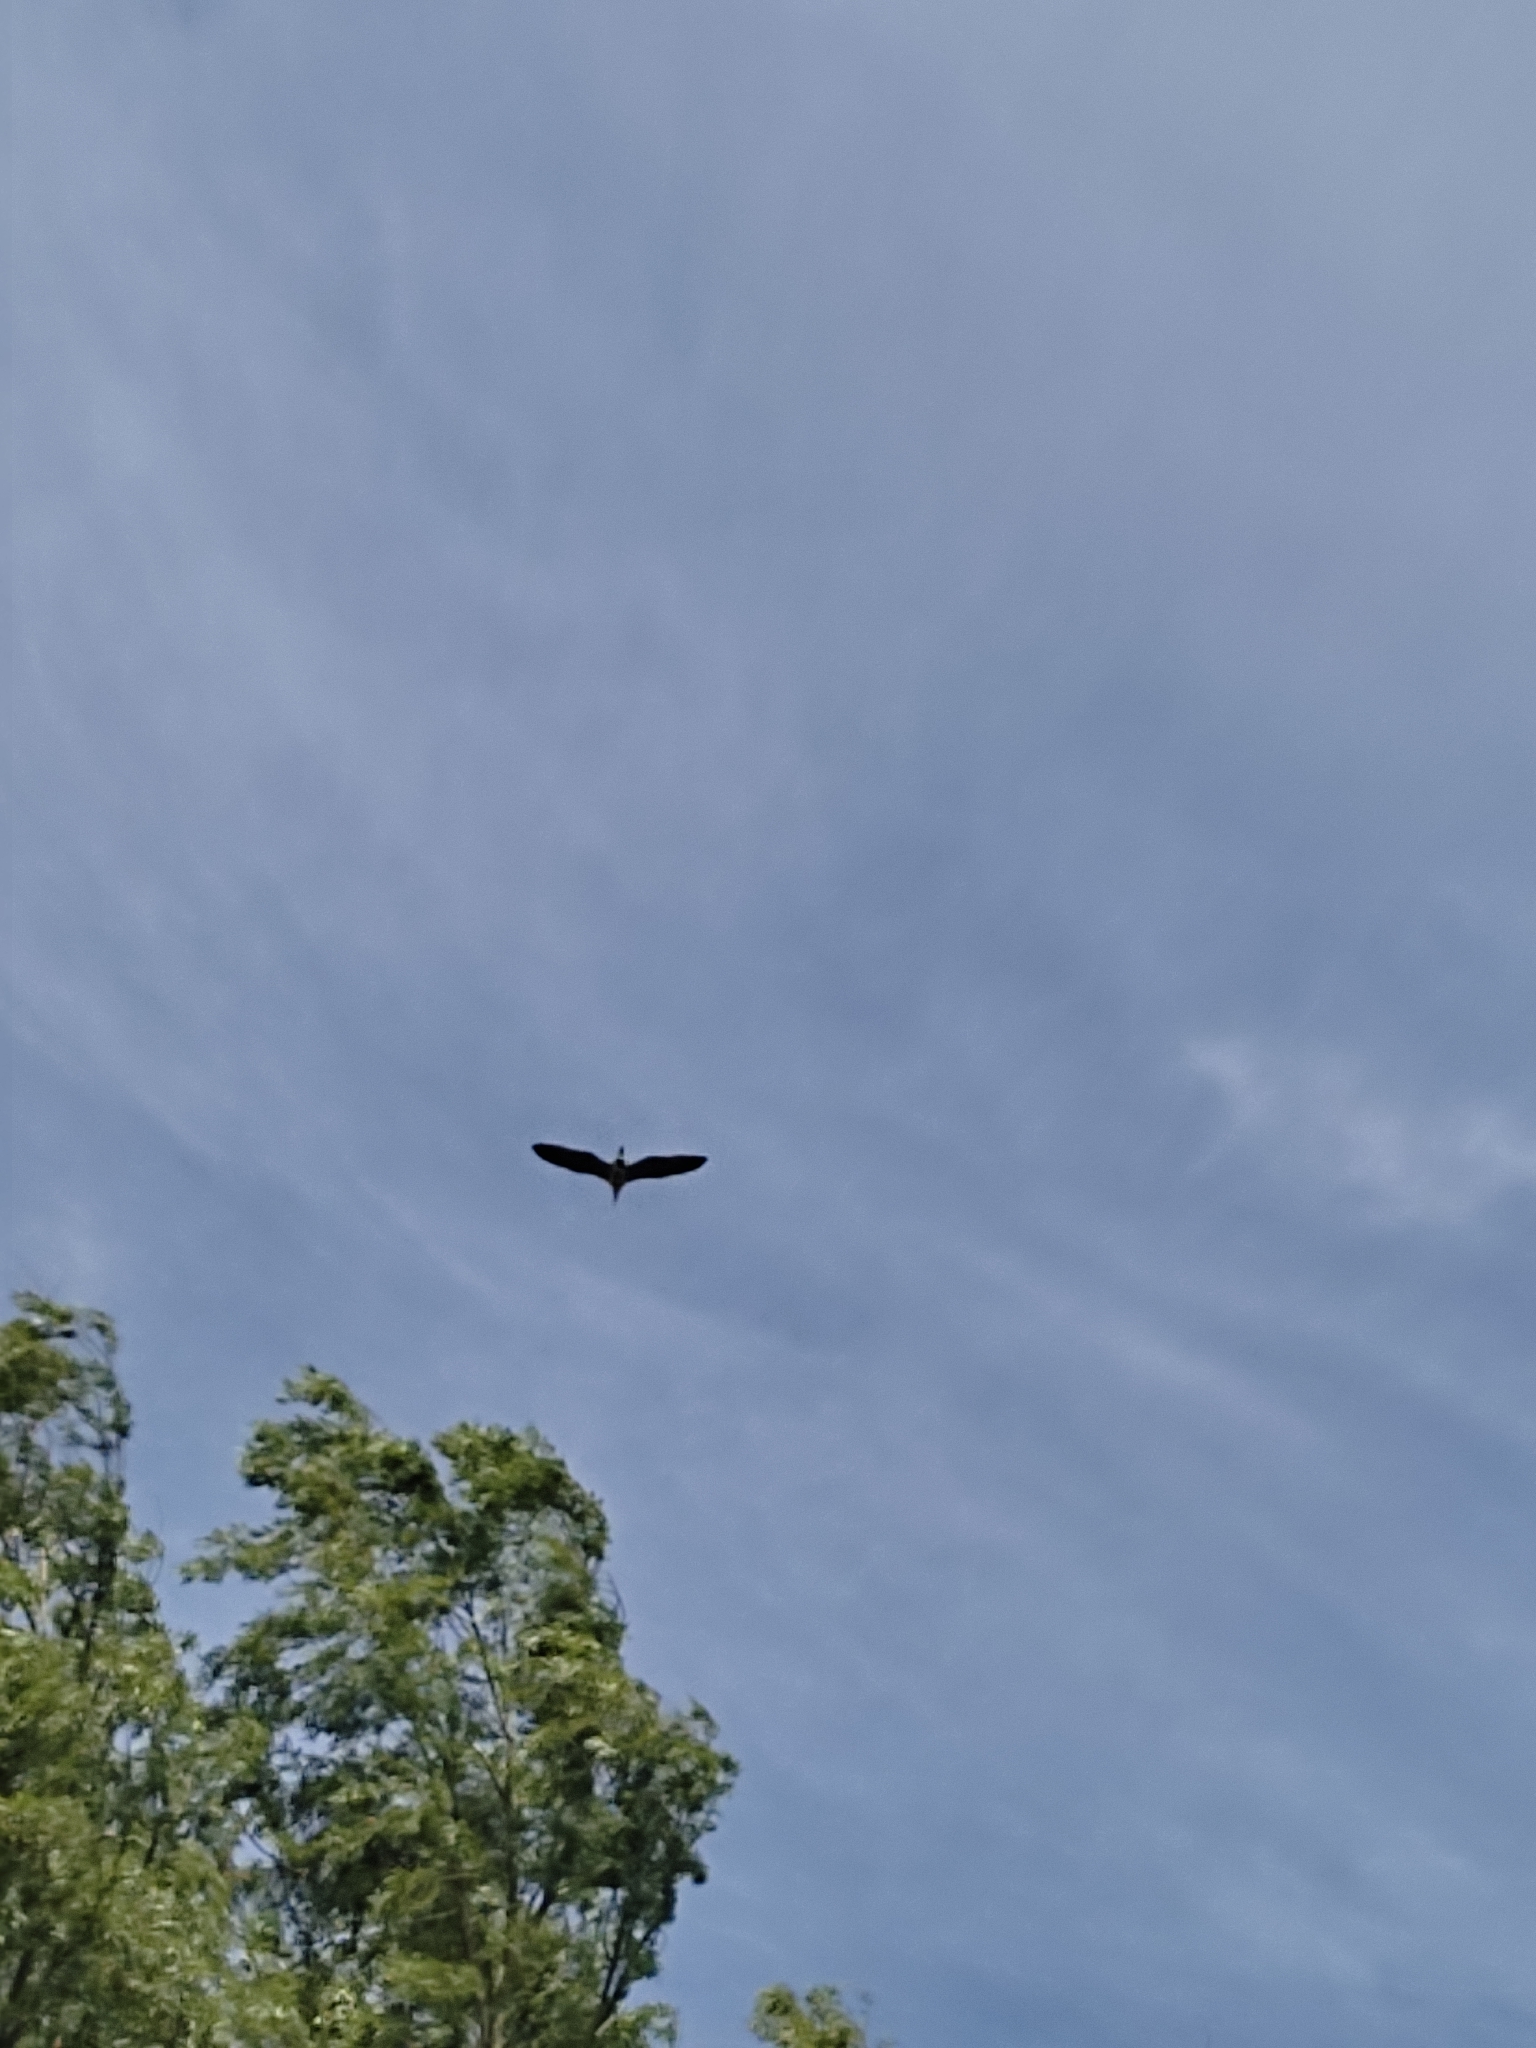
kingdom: Animalia
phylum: Chordata
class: Aves
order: Pelecaniformes
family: Ardeidae
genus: Ardea
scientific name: Ardea cinerea
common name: Grey heron
